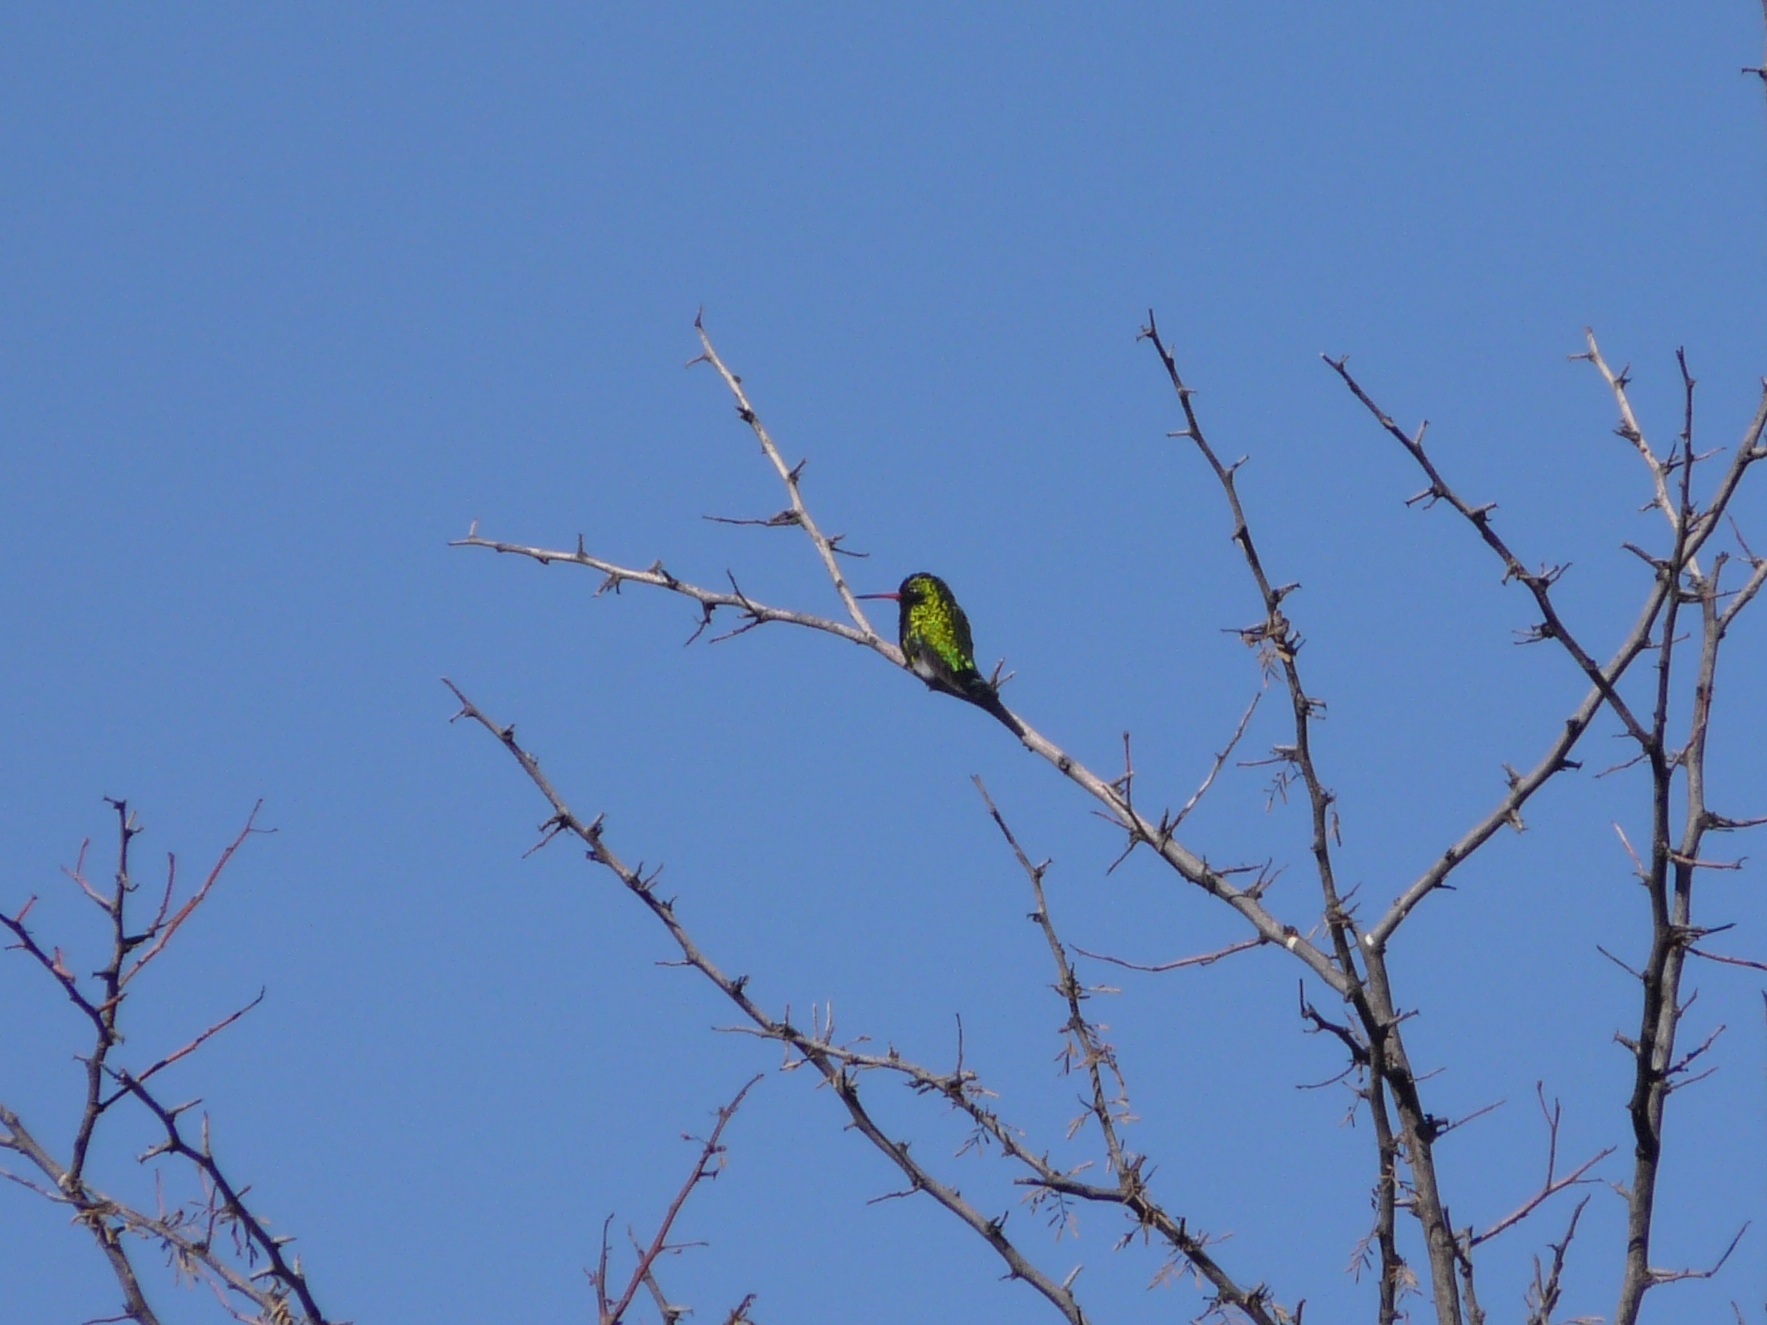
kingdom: Animalia
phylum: Chordata
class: Aves
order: Apodiformes
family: Trochilidae
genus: Chlorostilbon
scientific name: Chlorostilbon lucidus
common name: Glittering-bellied emerald
